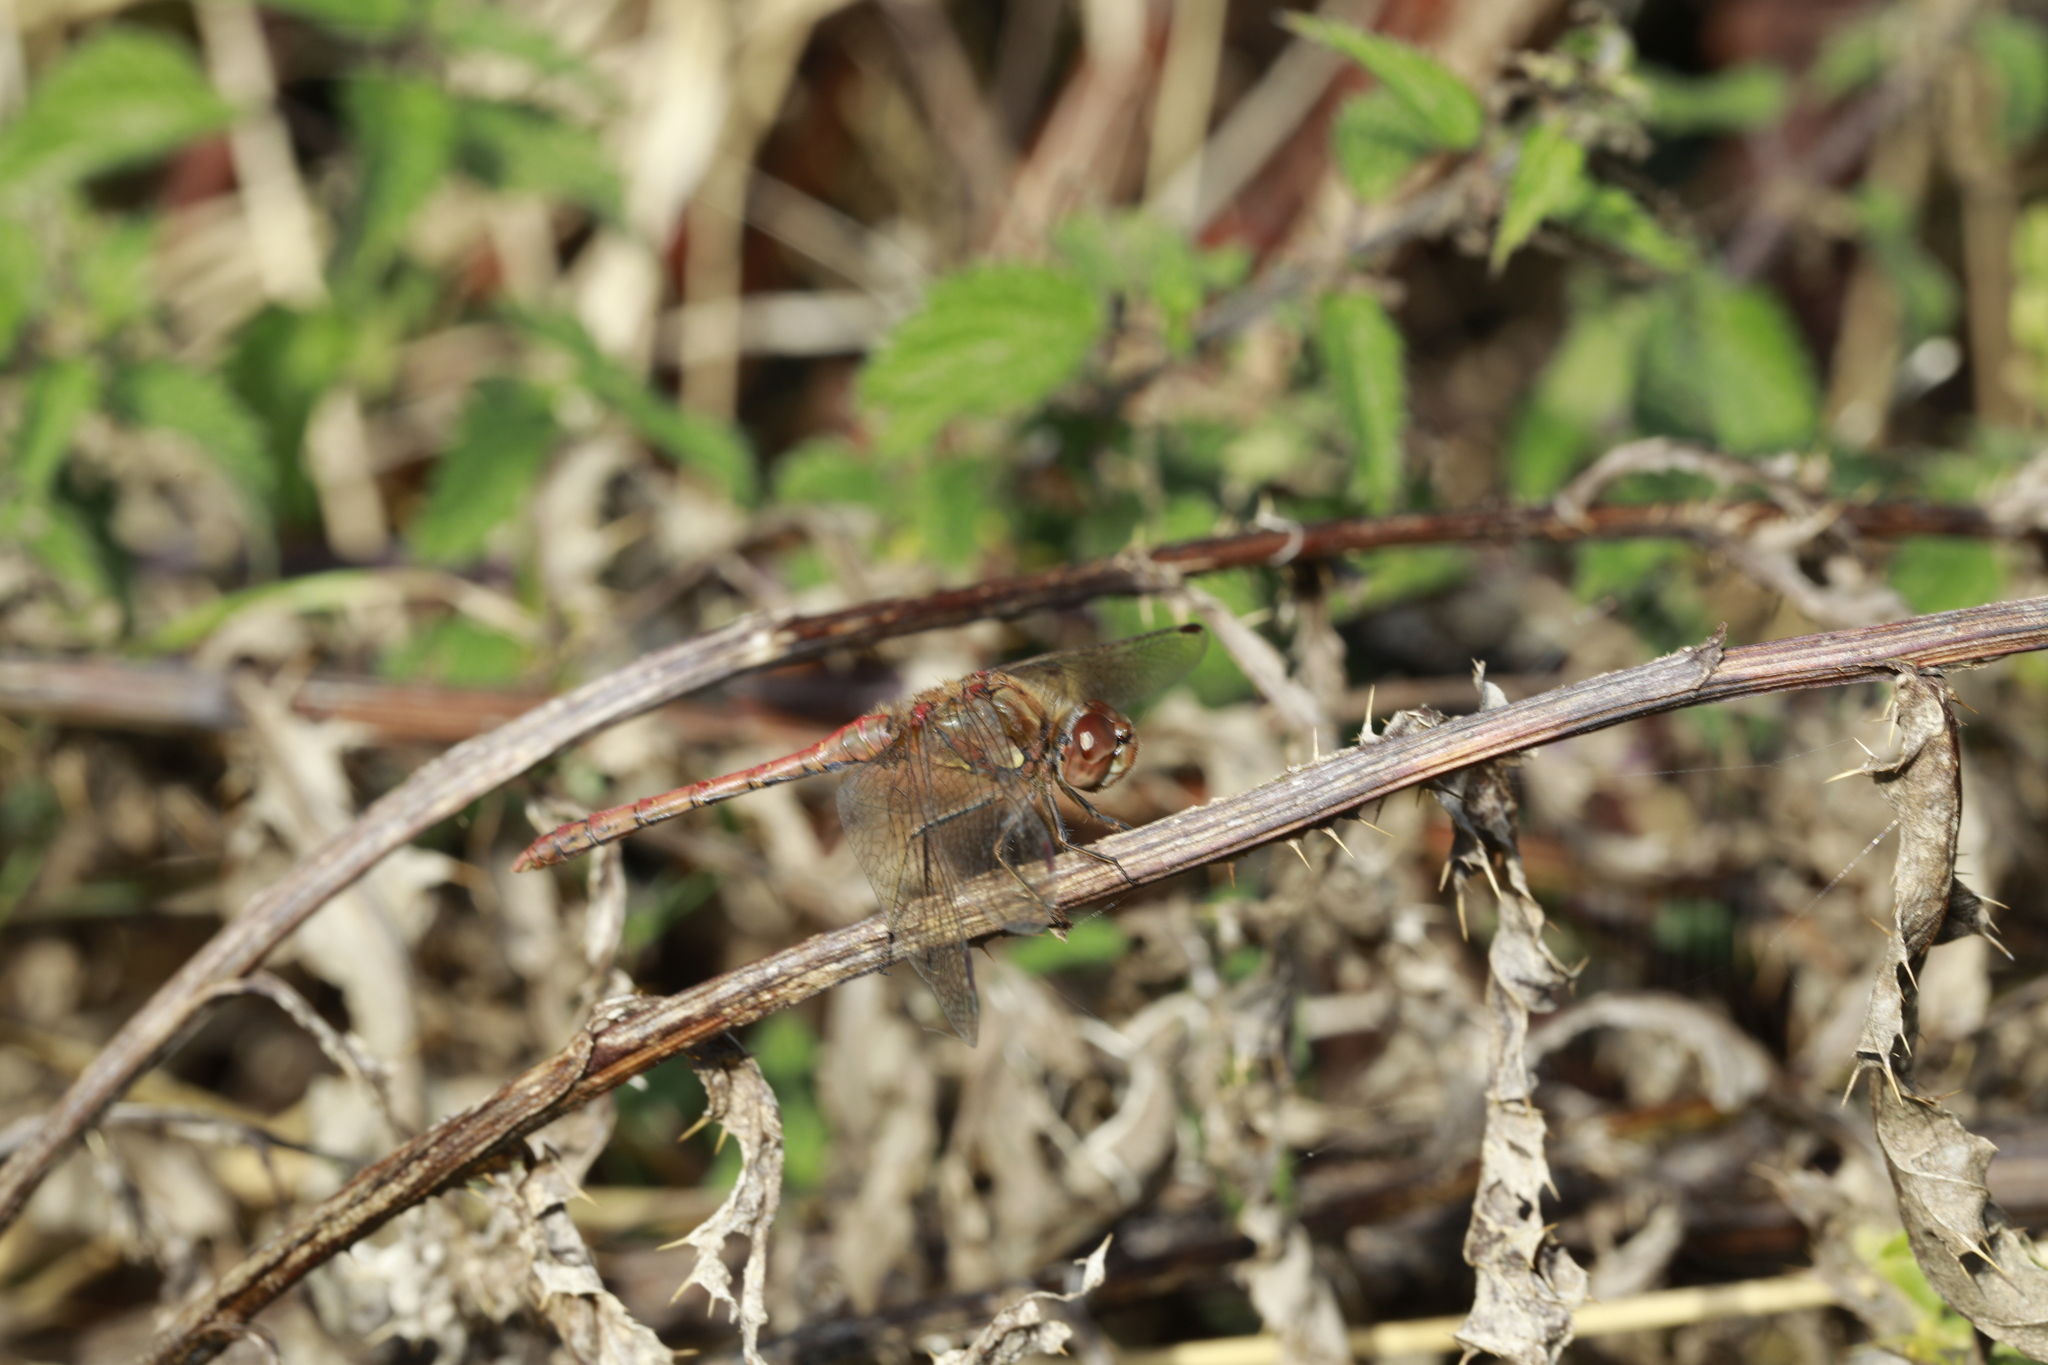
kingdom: Animalia
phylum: Arthropoda
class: Insecta
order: Odonata
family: Libellulidae
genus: Sympetrum
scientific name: Sympetrum striolatum
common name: Common darter
